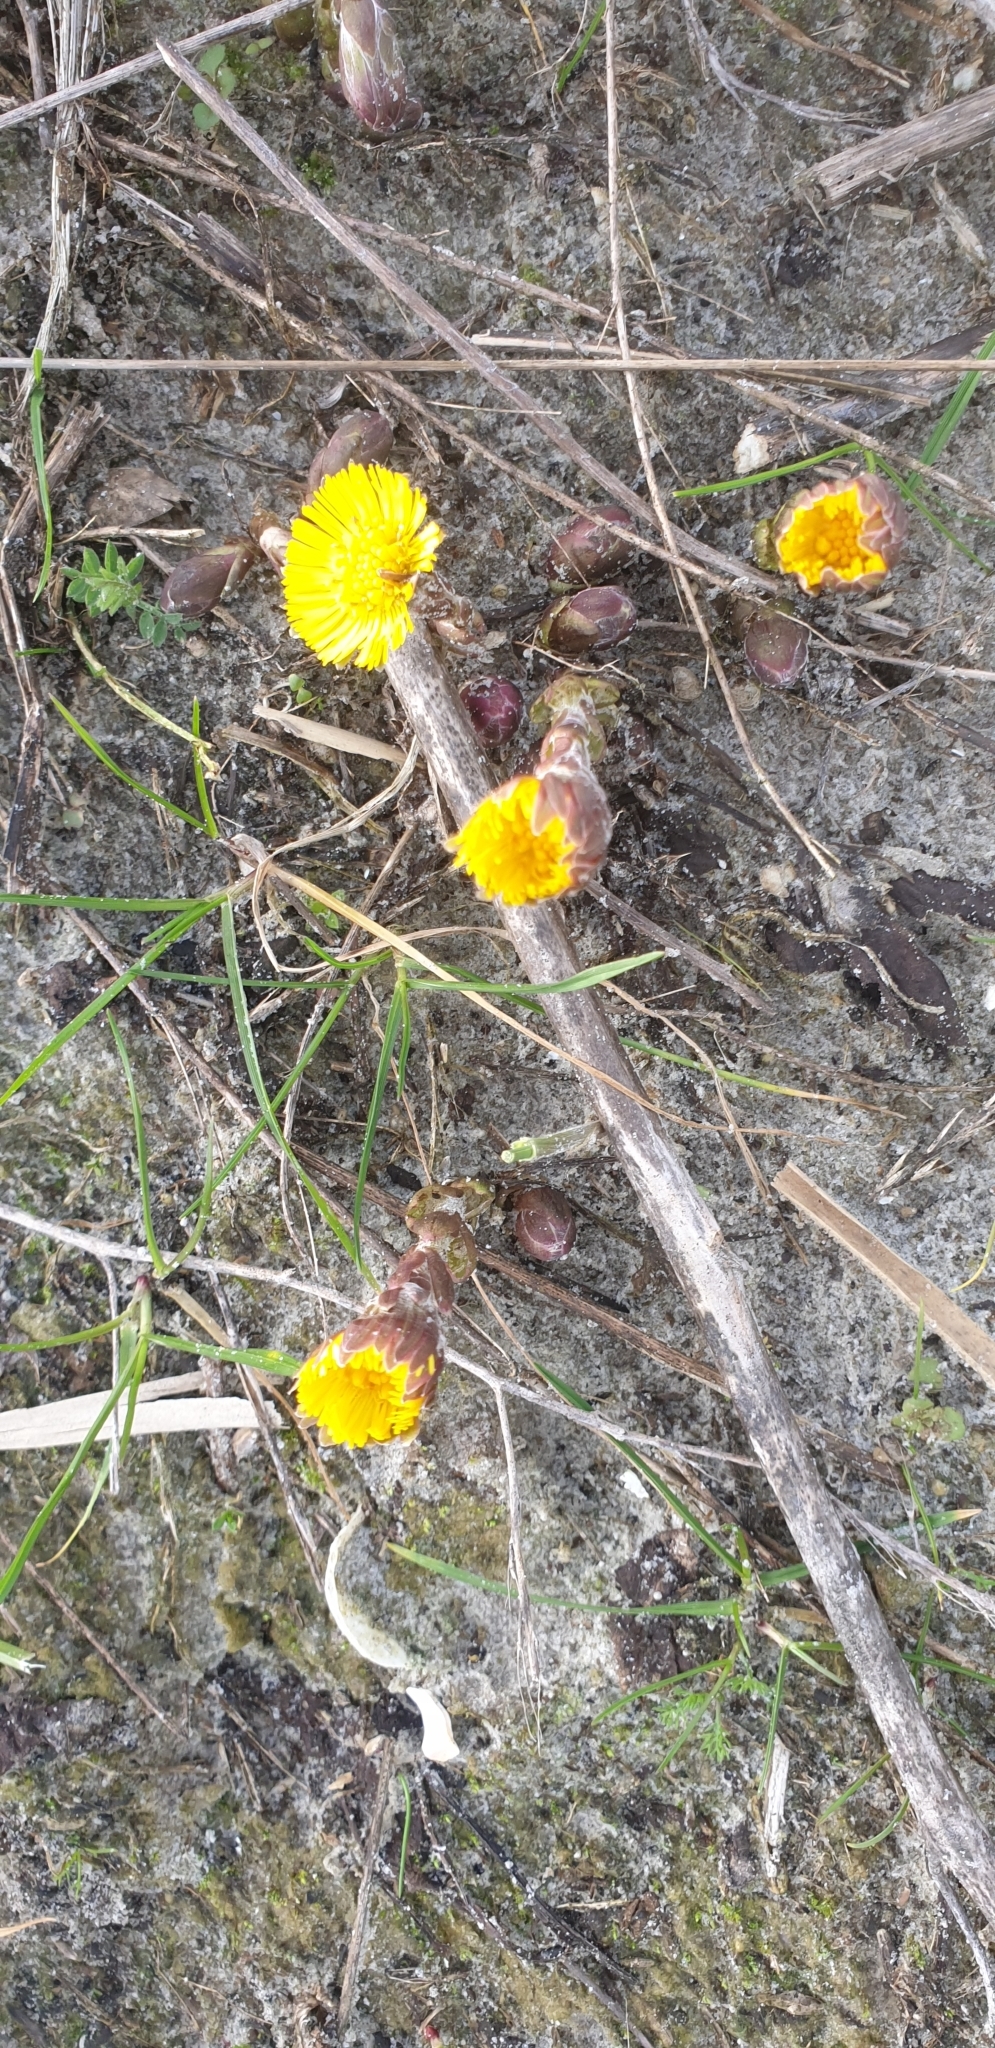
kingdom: Plantae
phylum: Tracheophyta
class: Magnoliopsida
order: Asterales
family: Asteraceae
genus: Tussilago
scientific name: Tussilago farfara
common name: Coltsfoot
